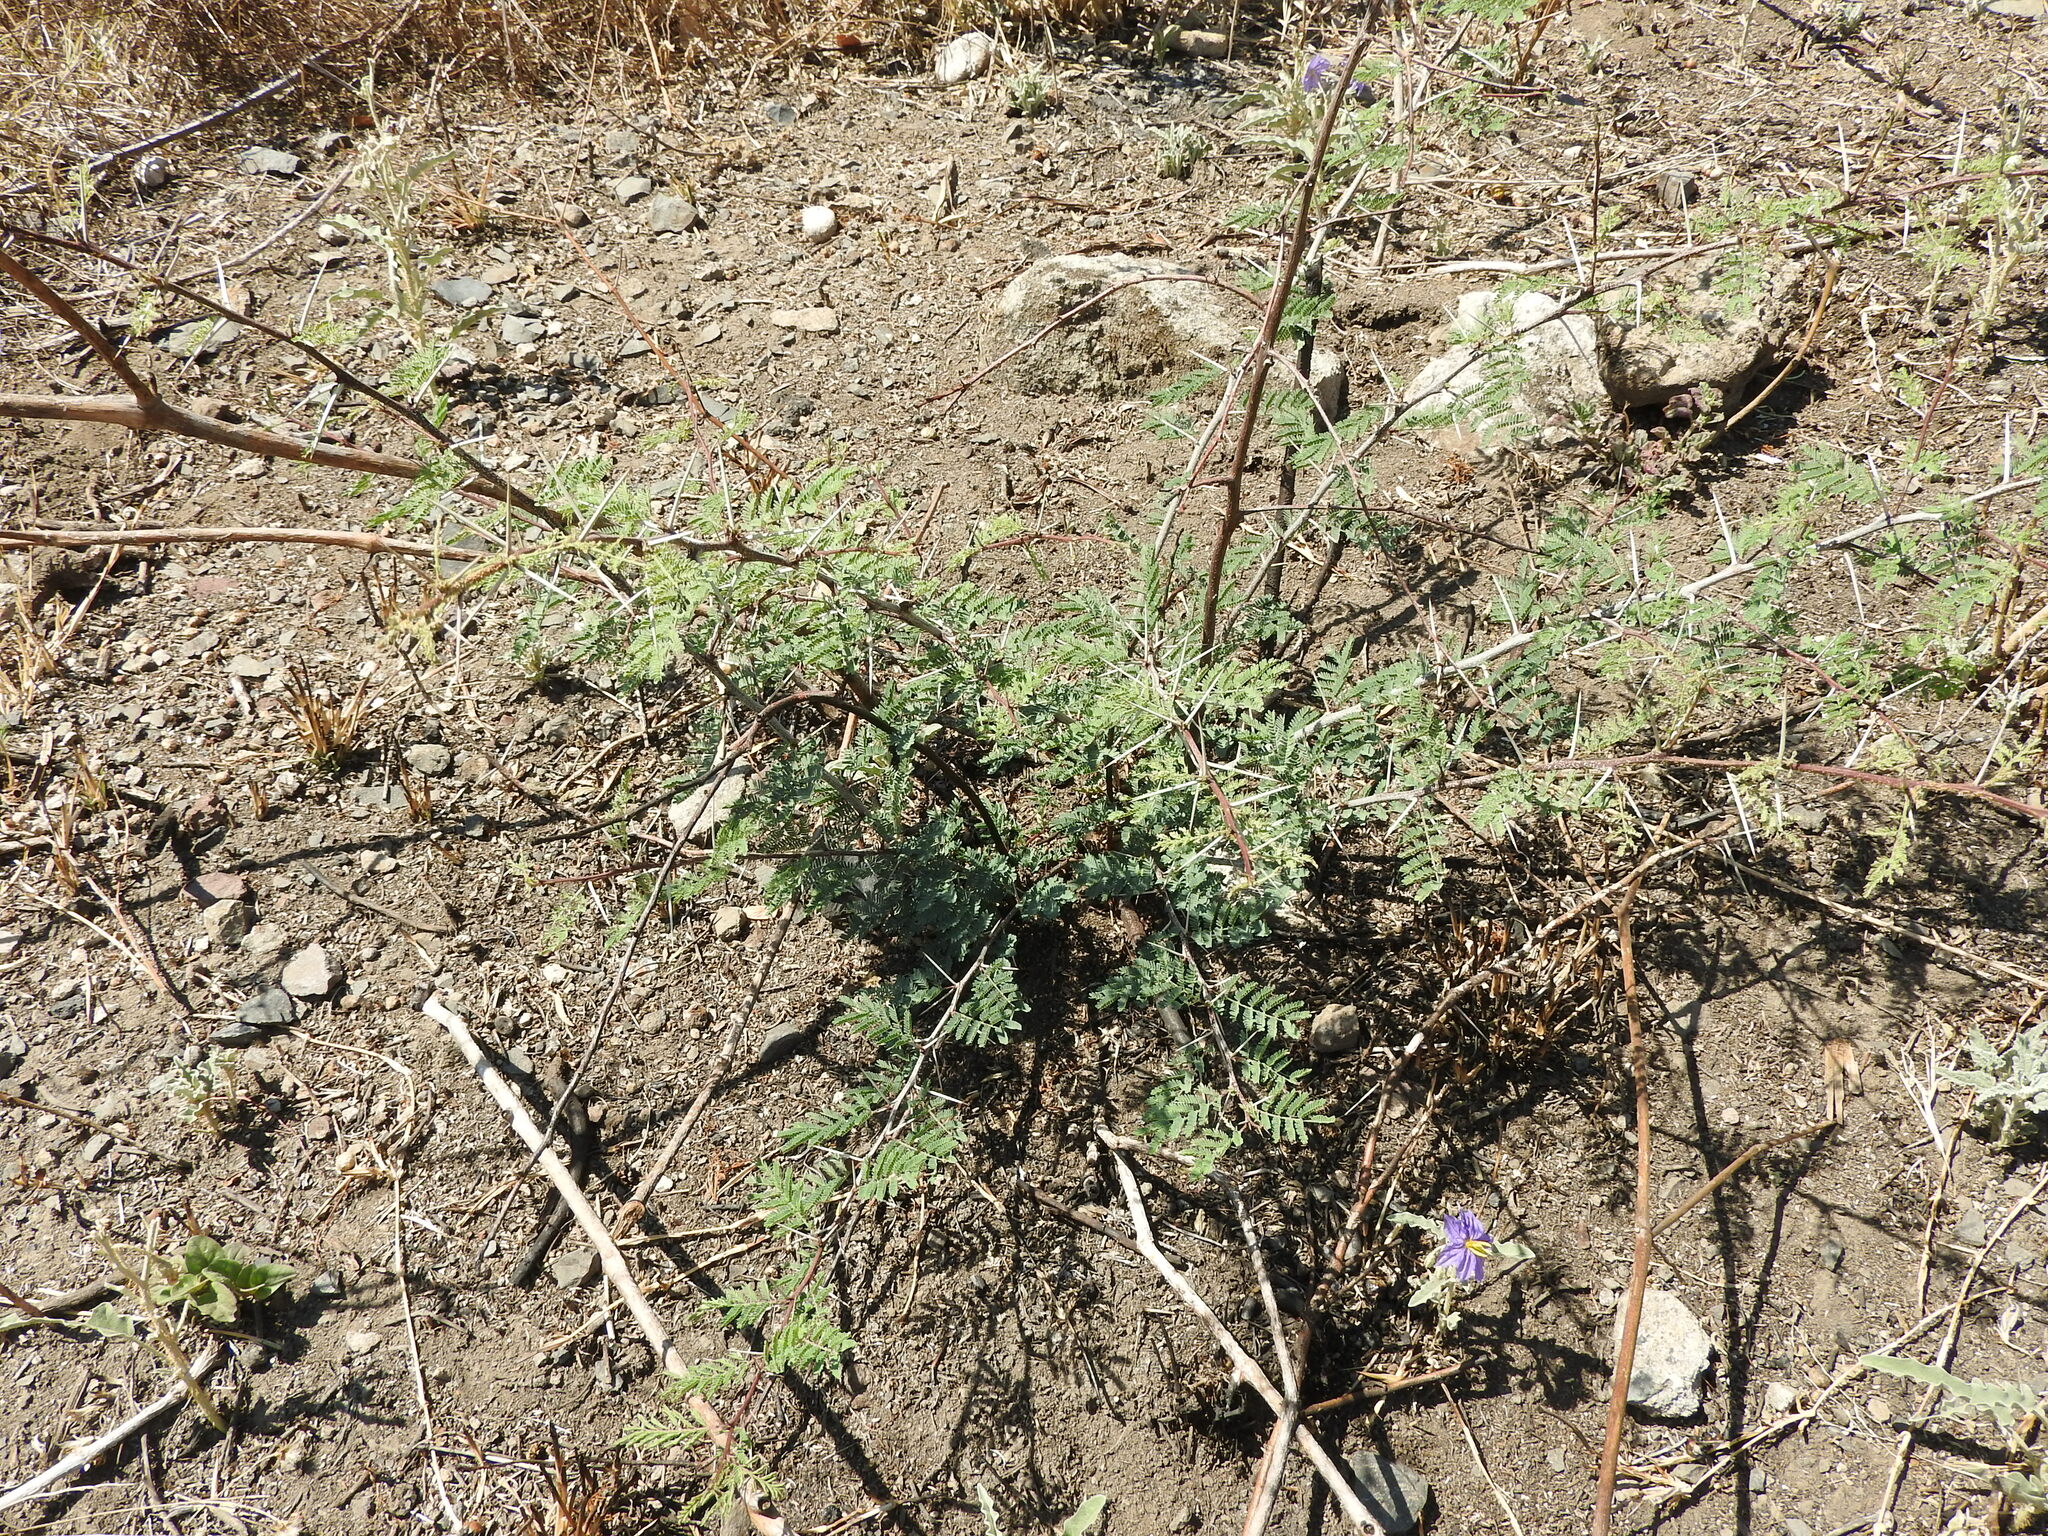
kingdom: Plantae
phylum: Tracheophyta
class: Magnoliopsida
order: Fabales
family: Fabaceae
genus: Vachellia
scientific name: Vachellia farnesiana
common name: Sweet acacia
